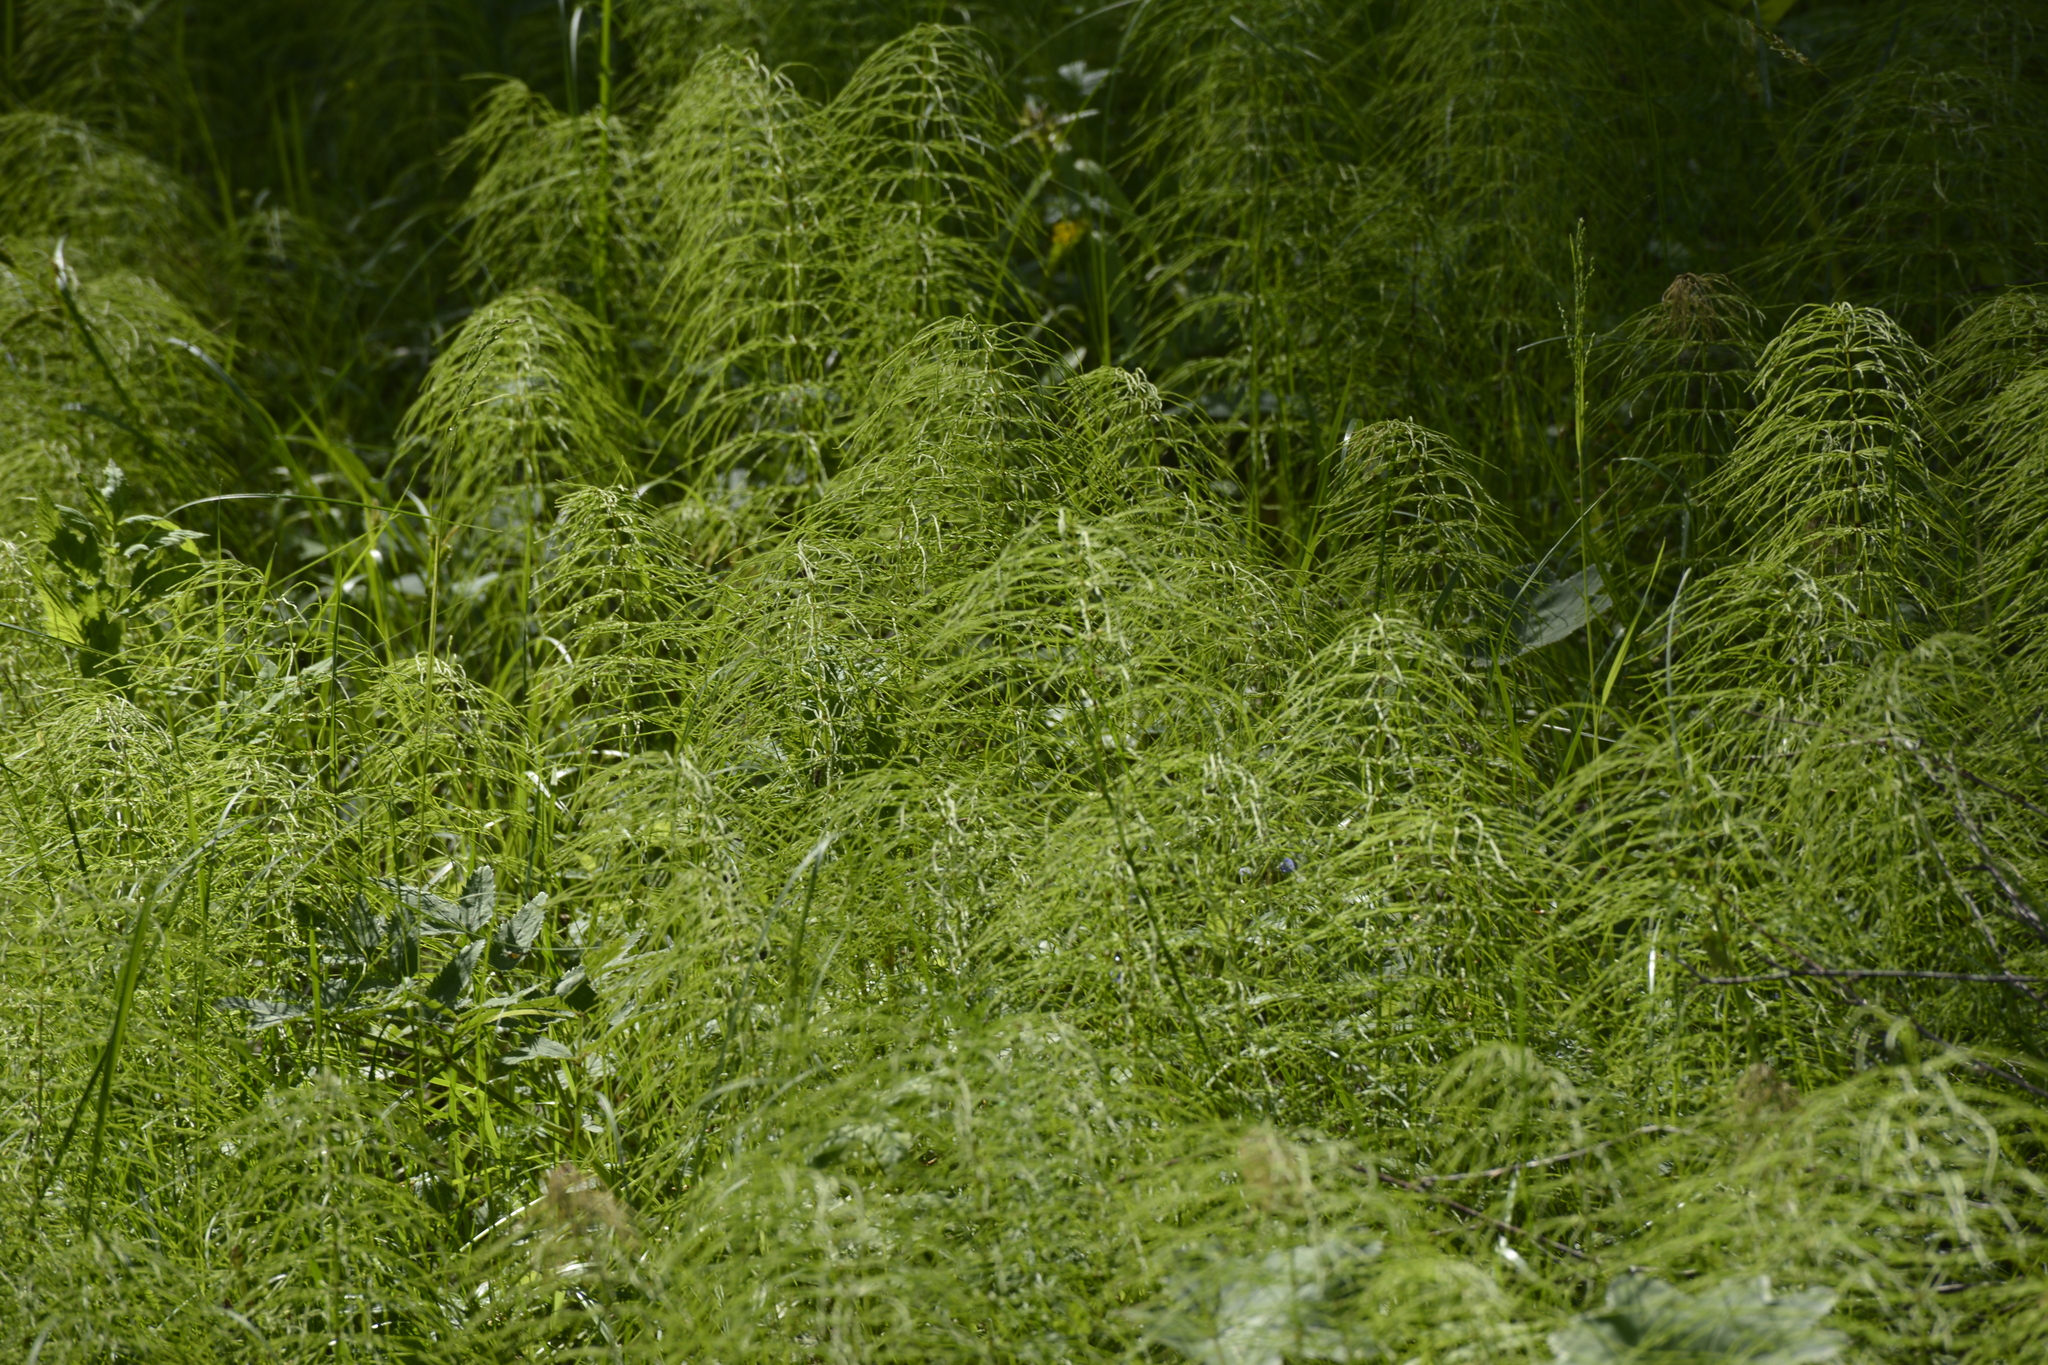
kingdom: Plantae
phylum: Tracheophyta
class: Polypodiopsida
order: Equisetales
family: Equisetaceae
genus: Equisetum
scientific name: Equisetum sylvaticum
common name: Wood horsetail
